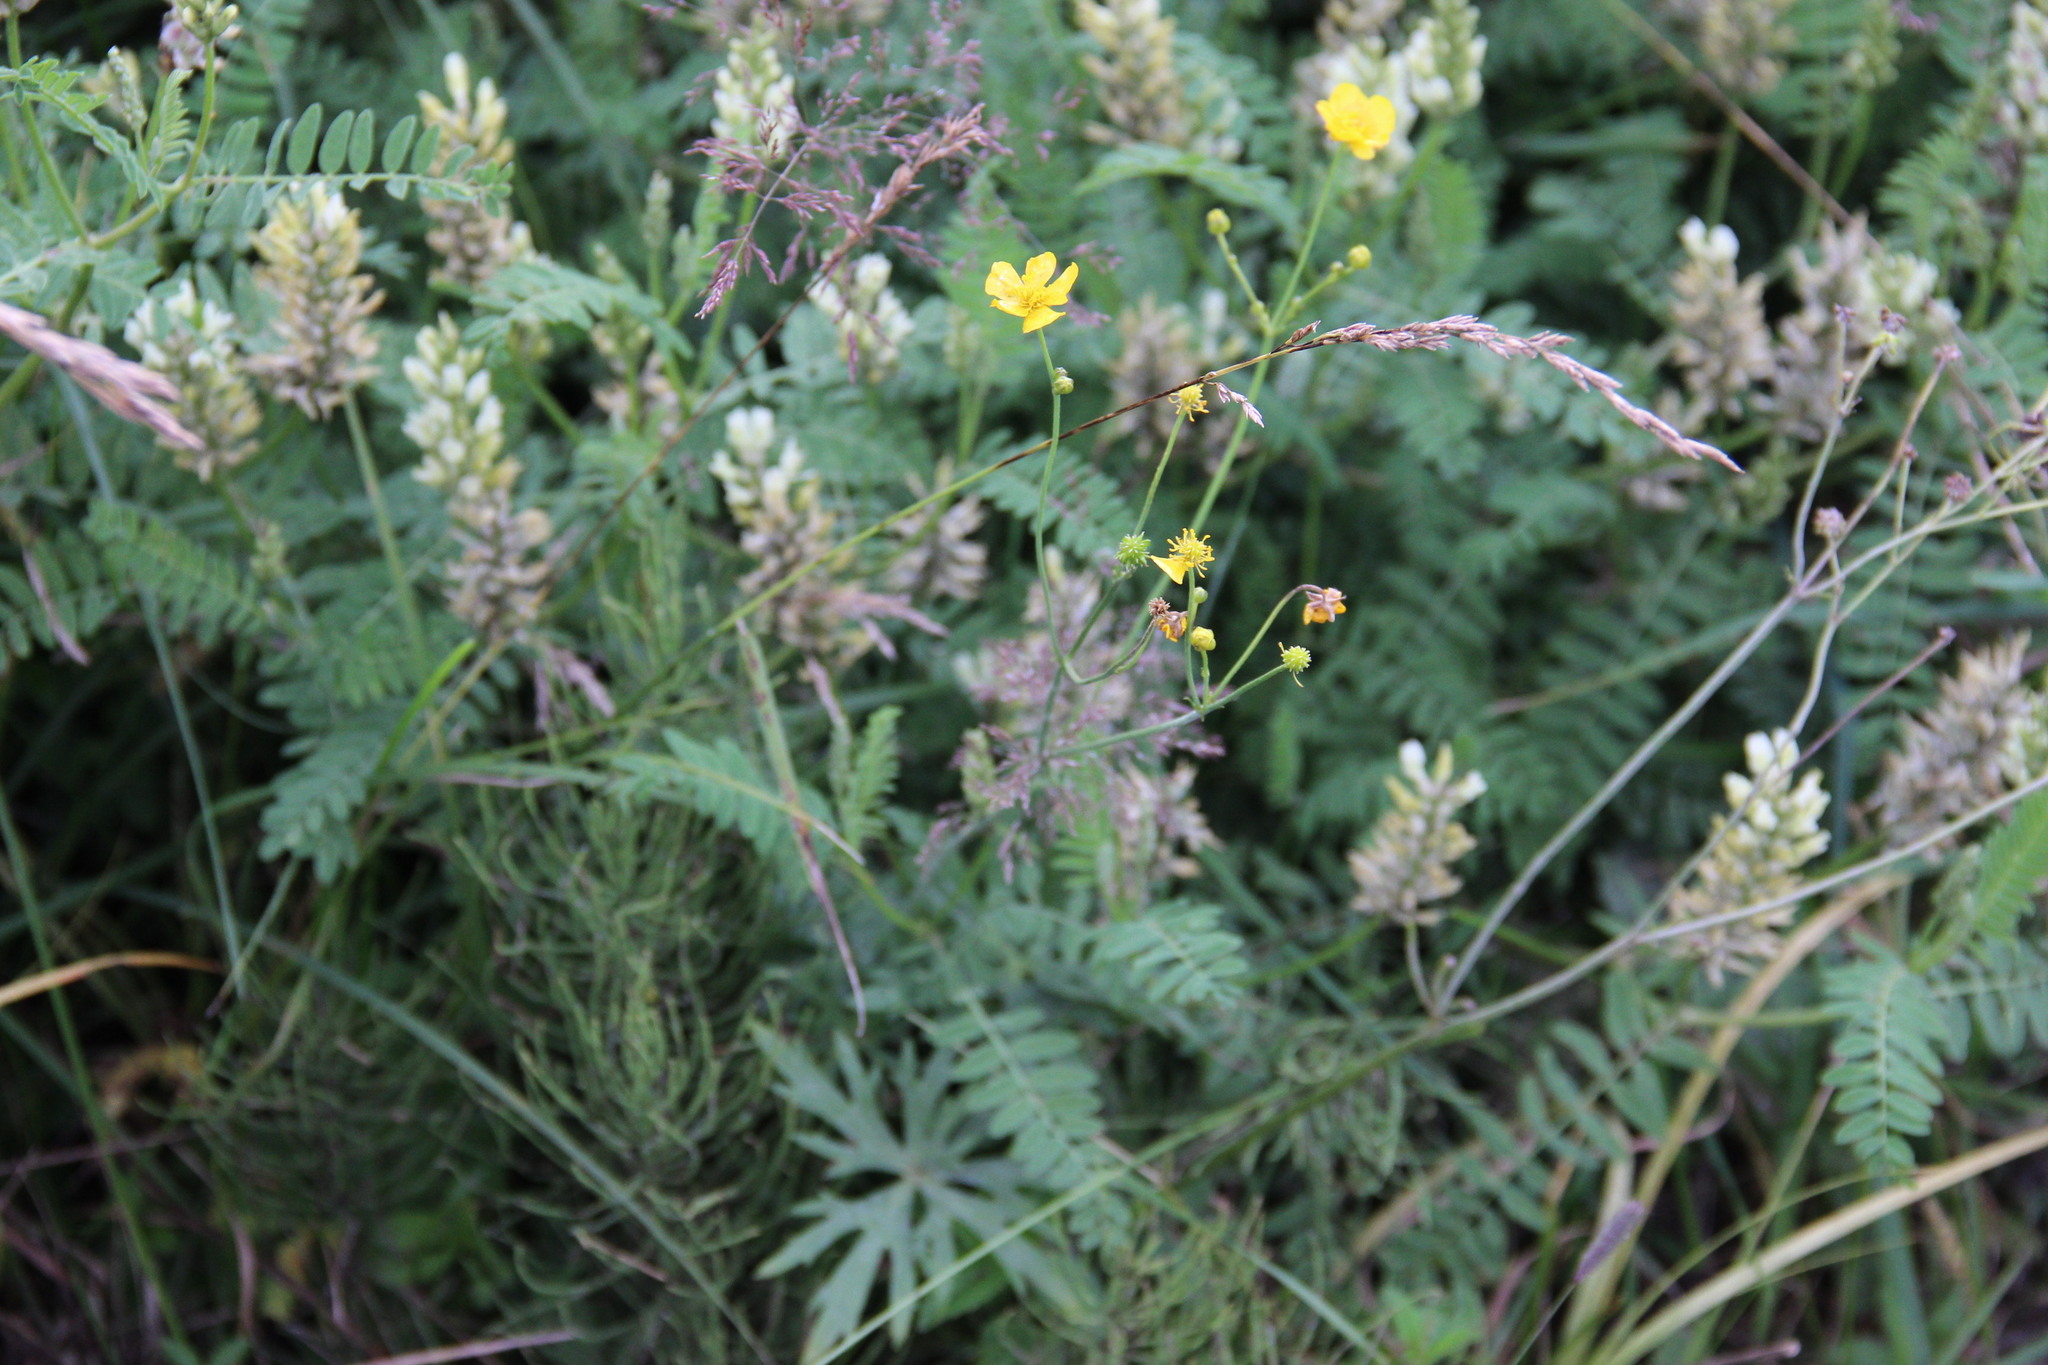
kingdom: Plantae
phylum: Tracheophyta
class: Magnoliopsida
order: Ranunculales
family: Ranunculaceae
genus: Ranunculus
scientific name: Ranunculus acris
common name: Meadow buttercup
